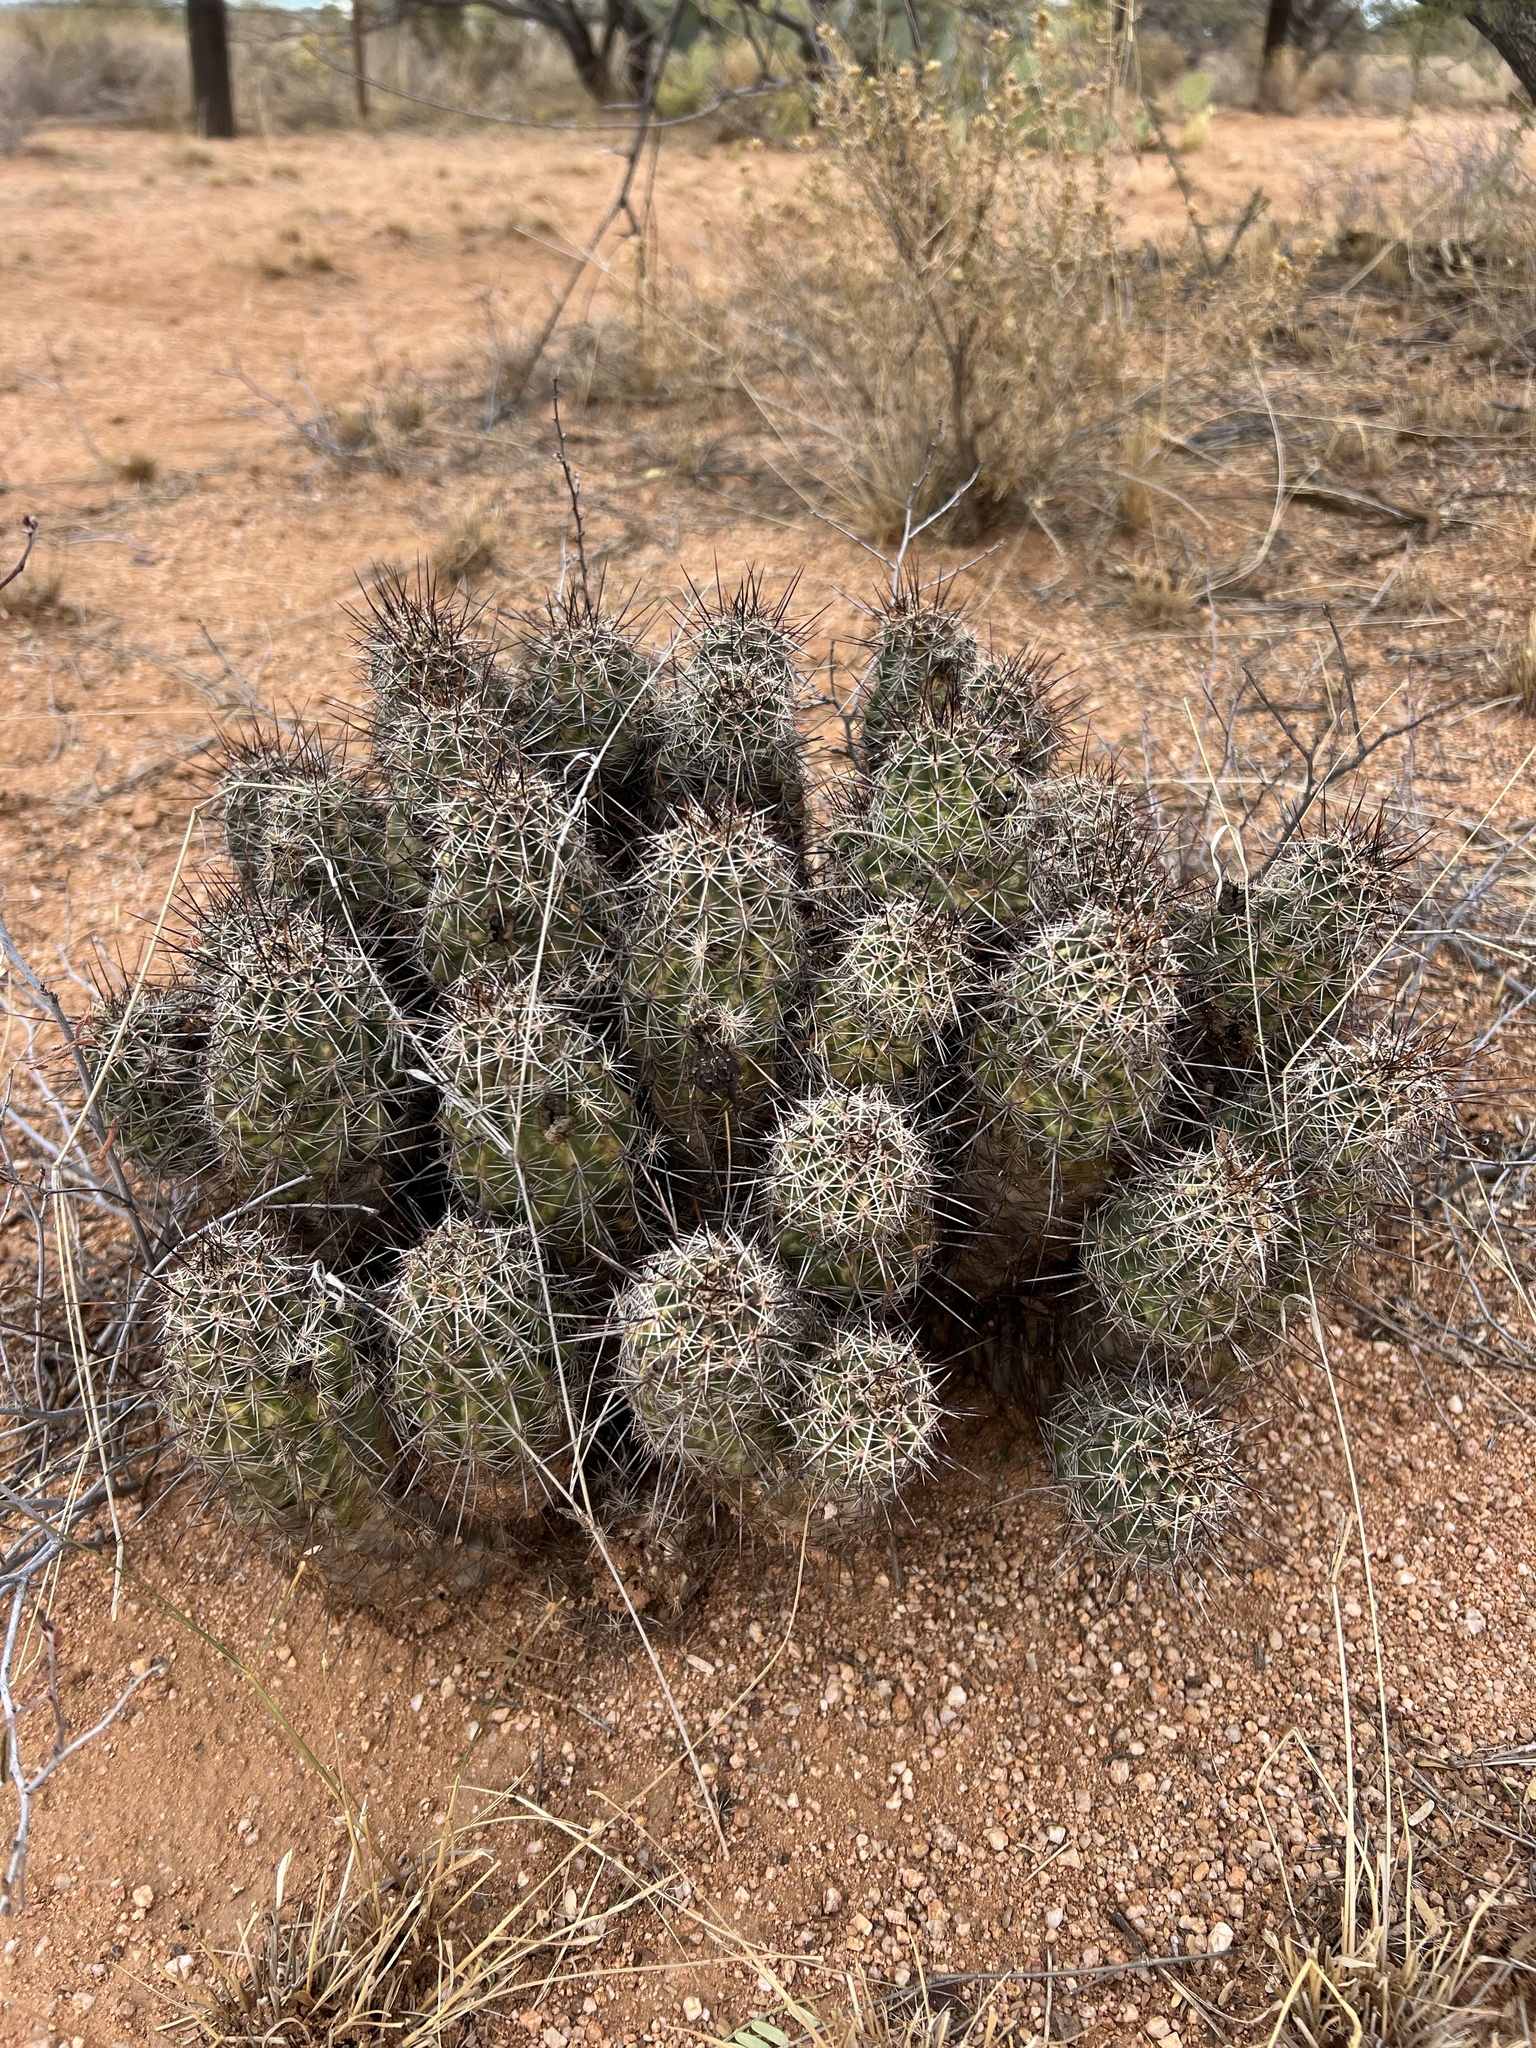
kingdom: Plantae
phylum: Tracheophyta
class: Magnoliopsida
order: Caryophyllales
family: Cactaceae
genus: Echinocereus
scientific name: Echinocereus fasciculatus
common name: Bundle hedgehog
